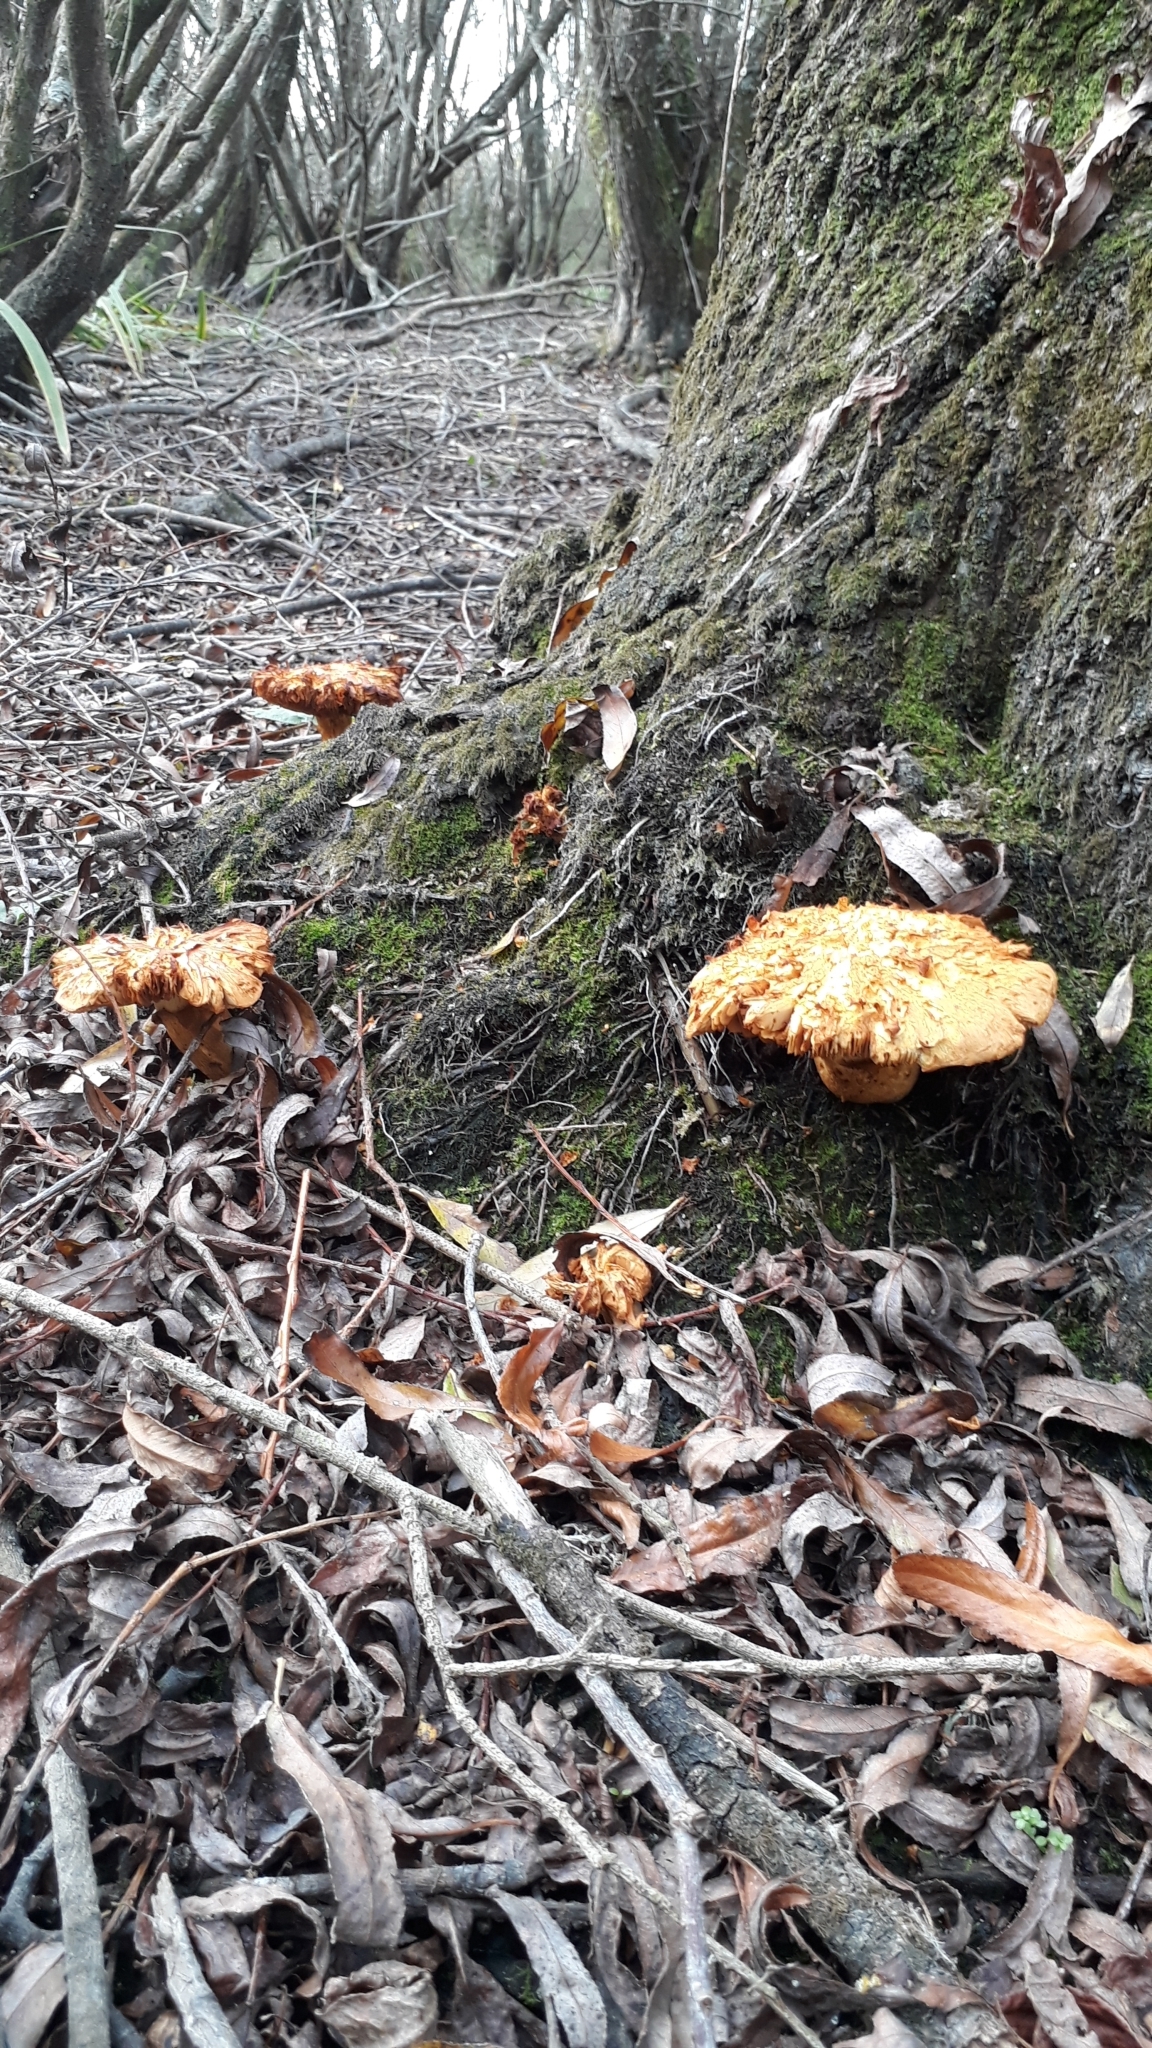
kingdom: Fungi
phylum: Basidiomycota
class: Agaricomycetes
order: Agaricales
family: Hymenogastraceae
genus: Gymnopilus
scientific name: Gymnopilus junonius
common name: Spectacular rustgill
